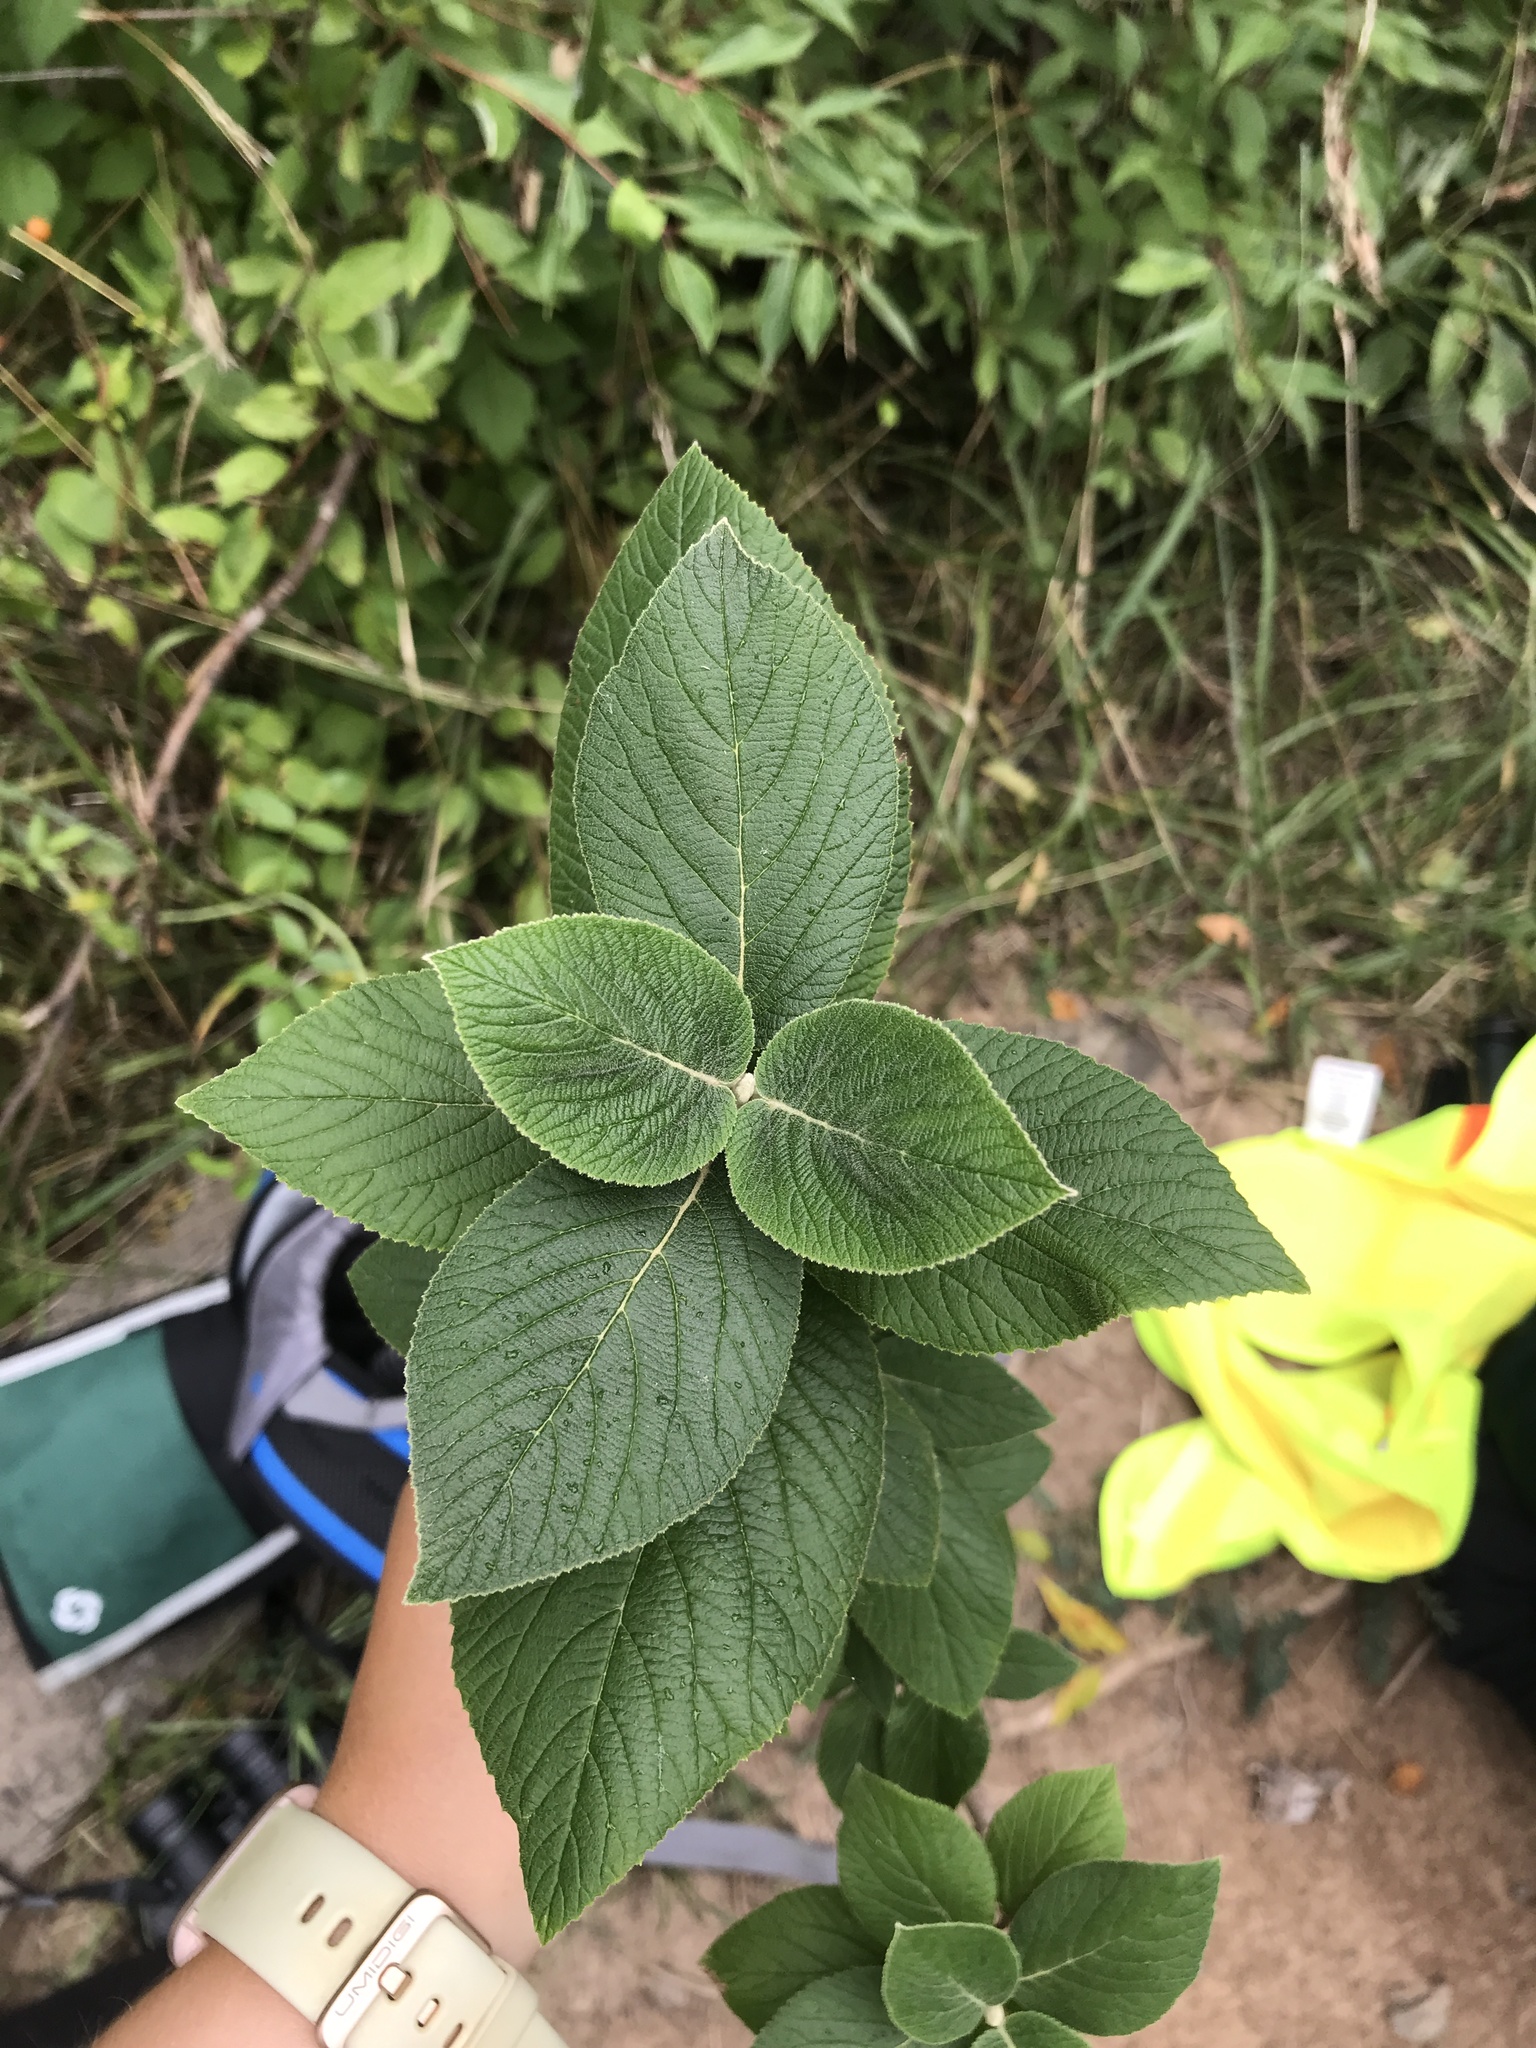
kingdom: Plantae
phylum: Tracheophyta
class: Magnoliopsida
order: Dipsacales
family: Viburnaceae
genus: Viburnum
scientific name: Viburnum lantana
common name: Wayfaring tree
